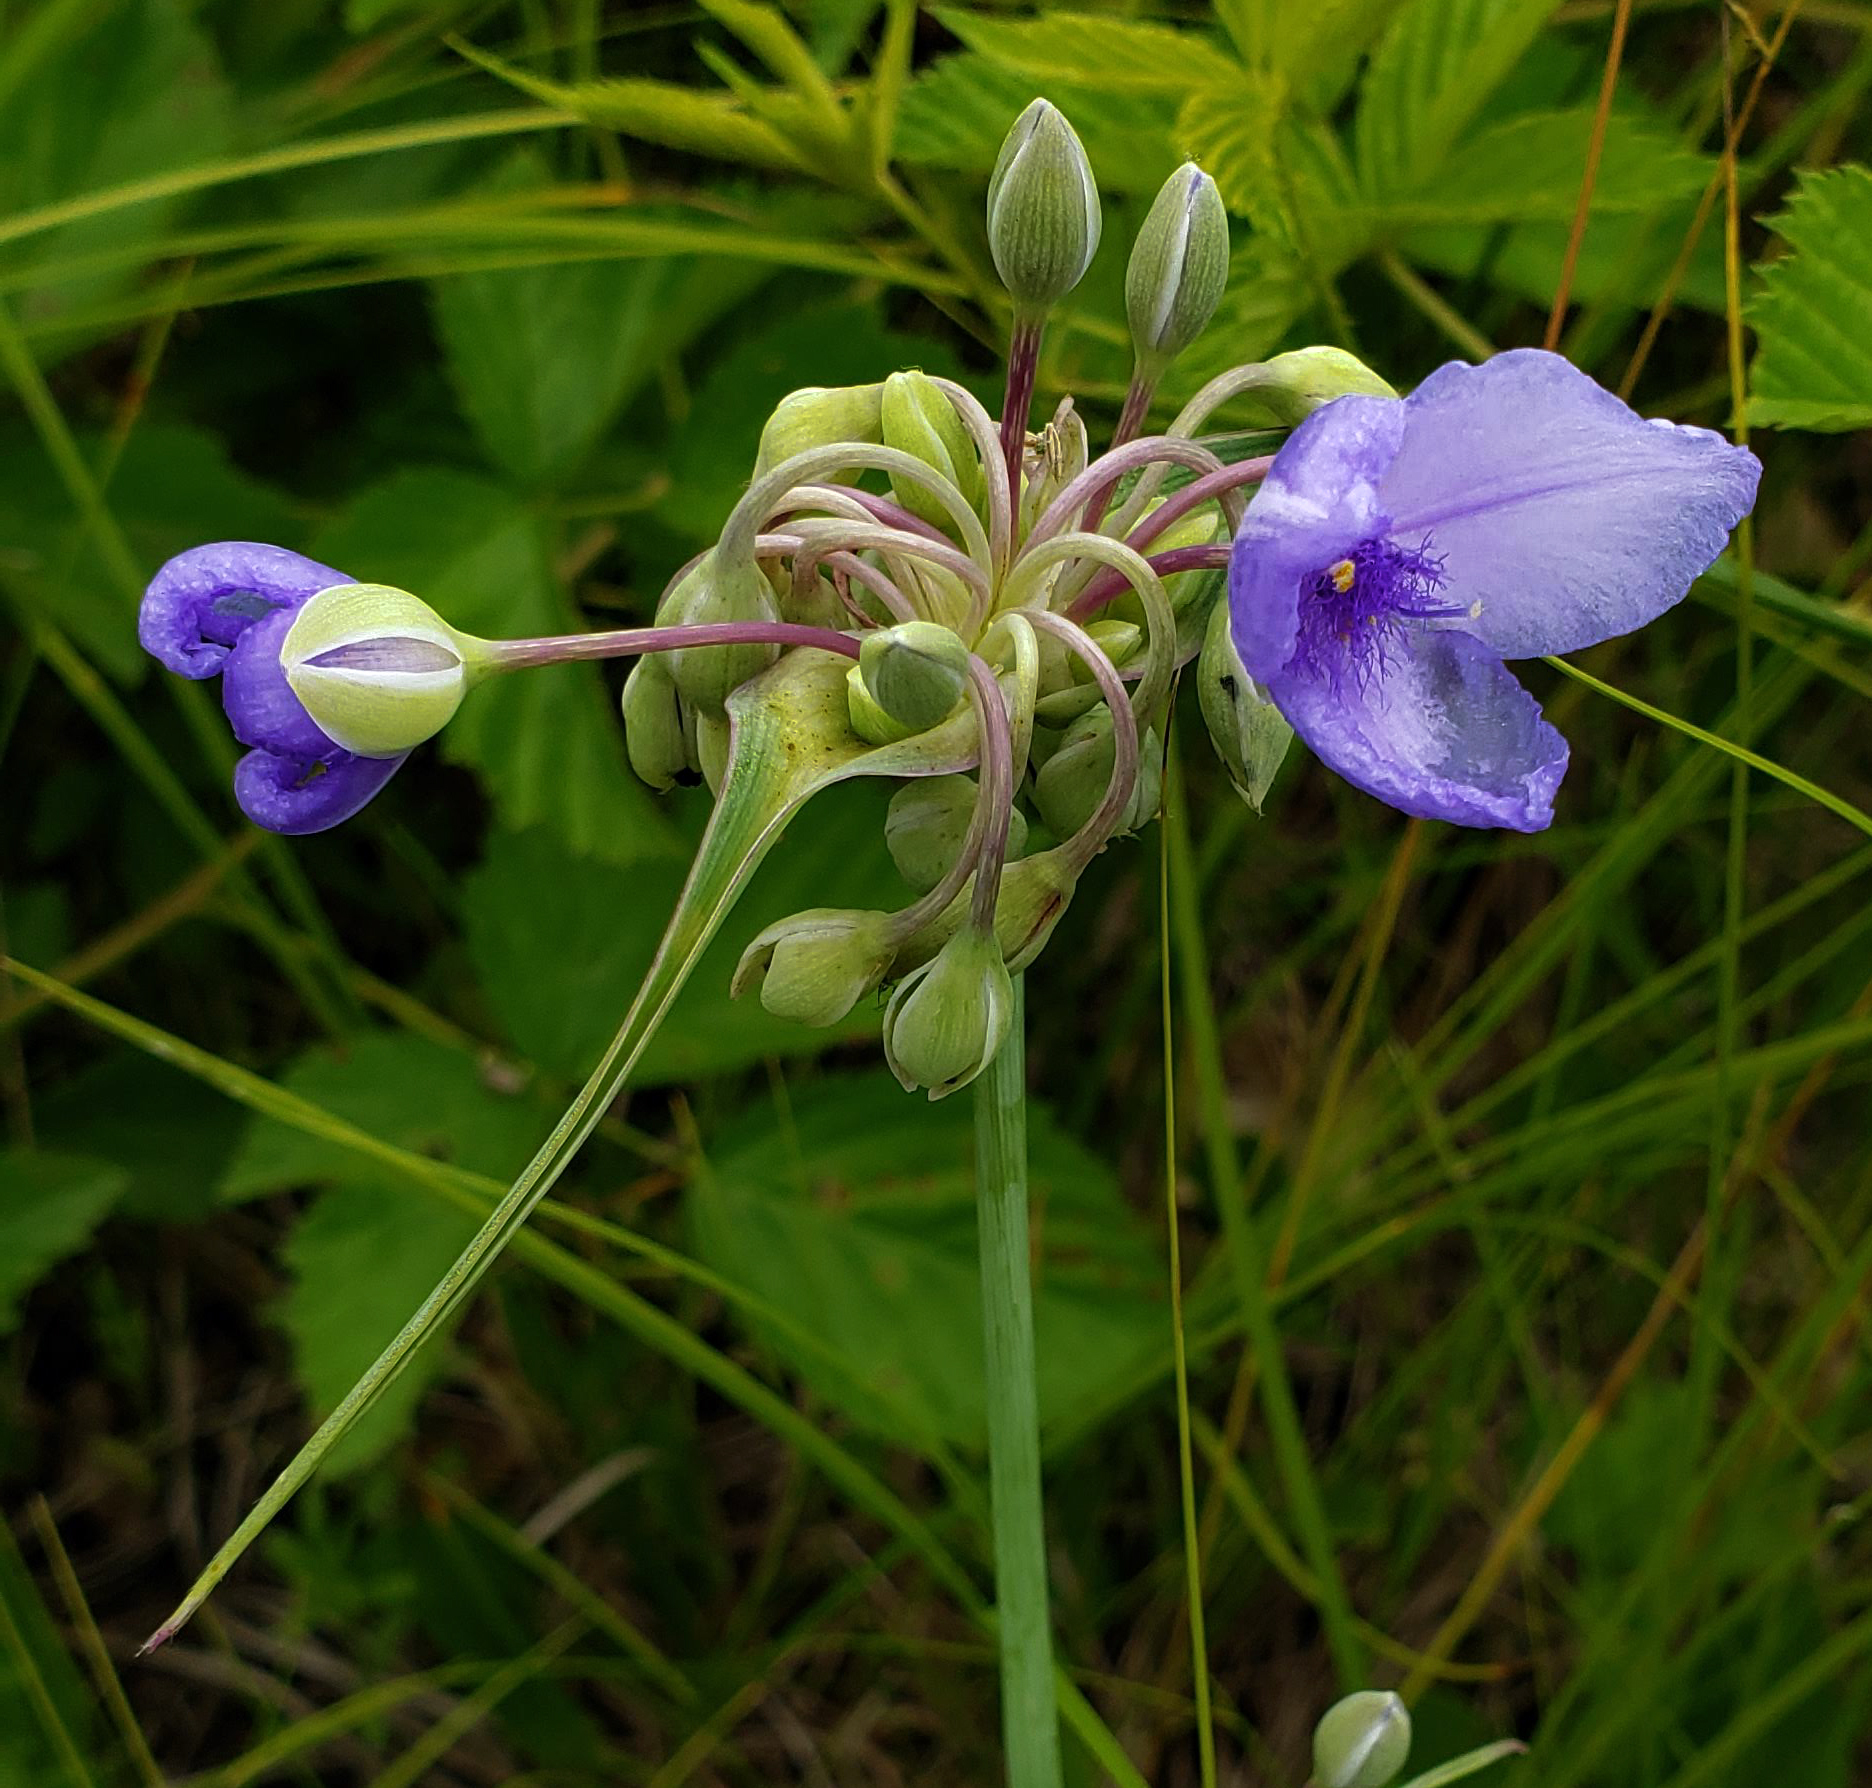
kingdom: Plantae
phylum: Tracheophyta
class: Liliopsida
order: Commelinales
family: Commelinaceae
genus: Tradescantia
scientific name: Tradescantia ohiensis
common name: Ohio spiderwort
